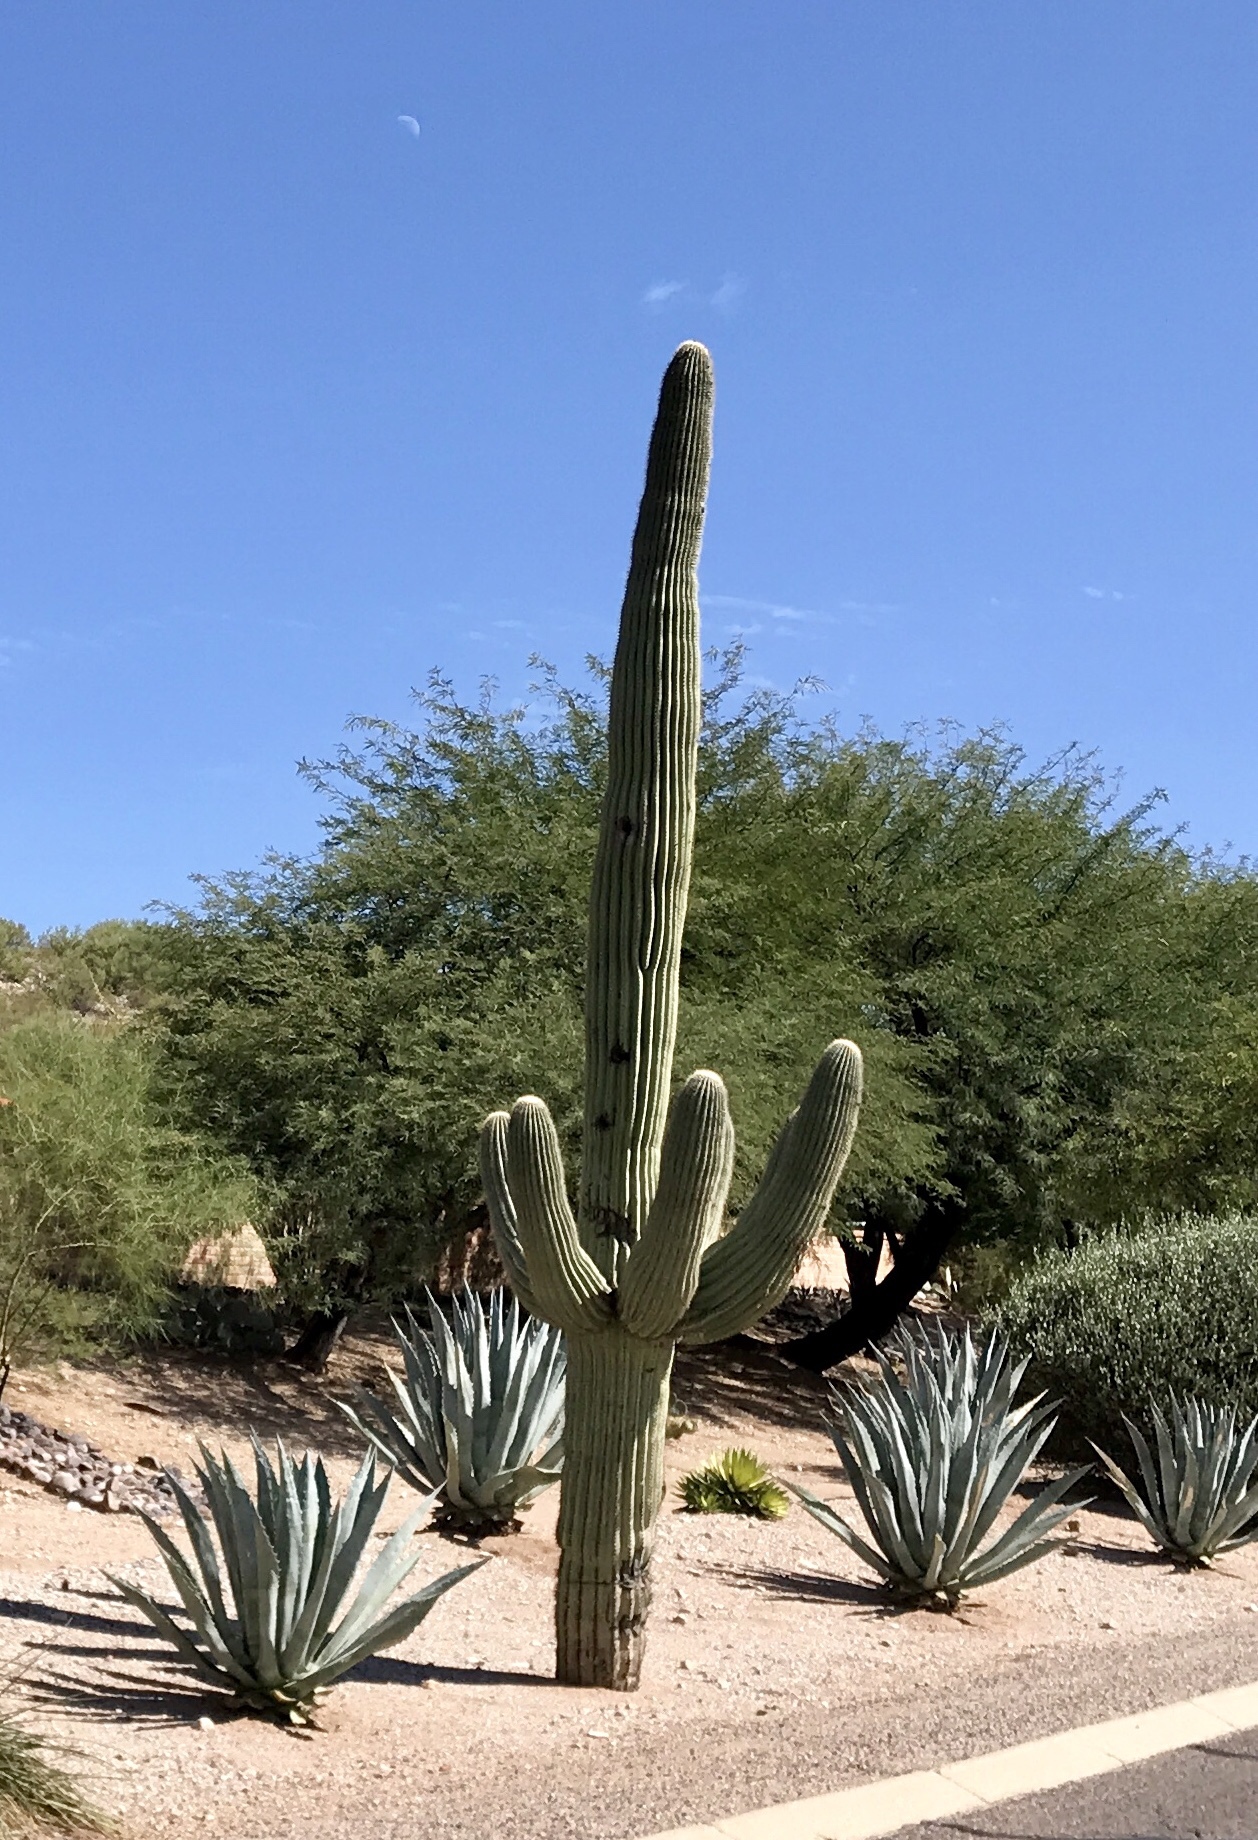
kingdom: Plantae
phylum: Tracheophyta
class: Magnoliopsida
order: Caryophyllales
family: Cactaceae
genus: Carnegiea
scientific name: Carnegiea gigantea
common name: Saguaro
